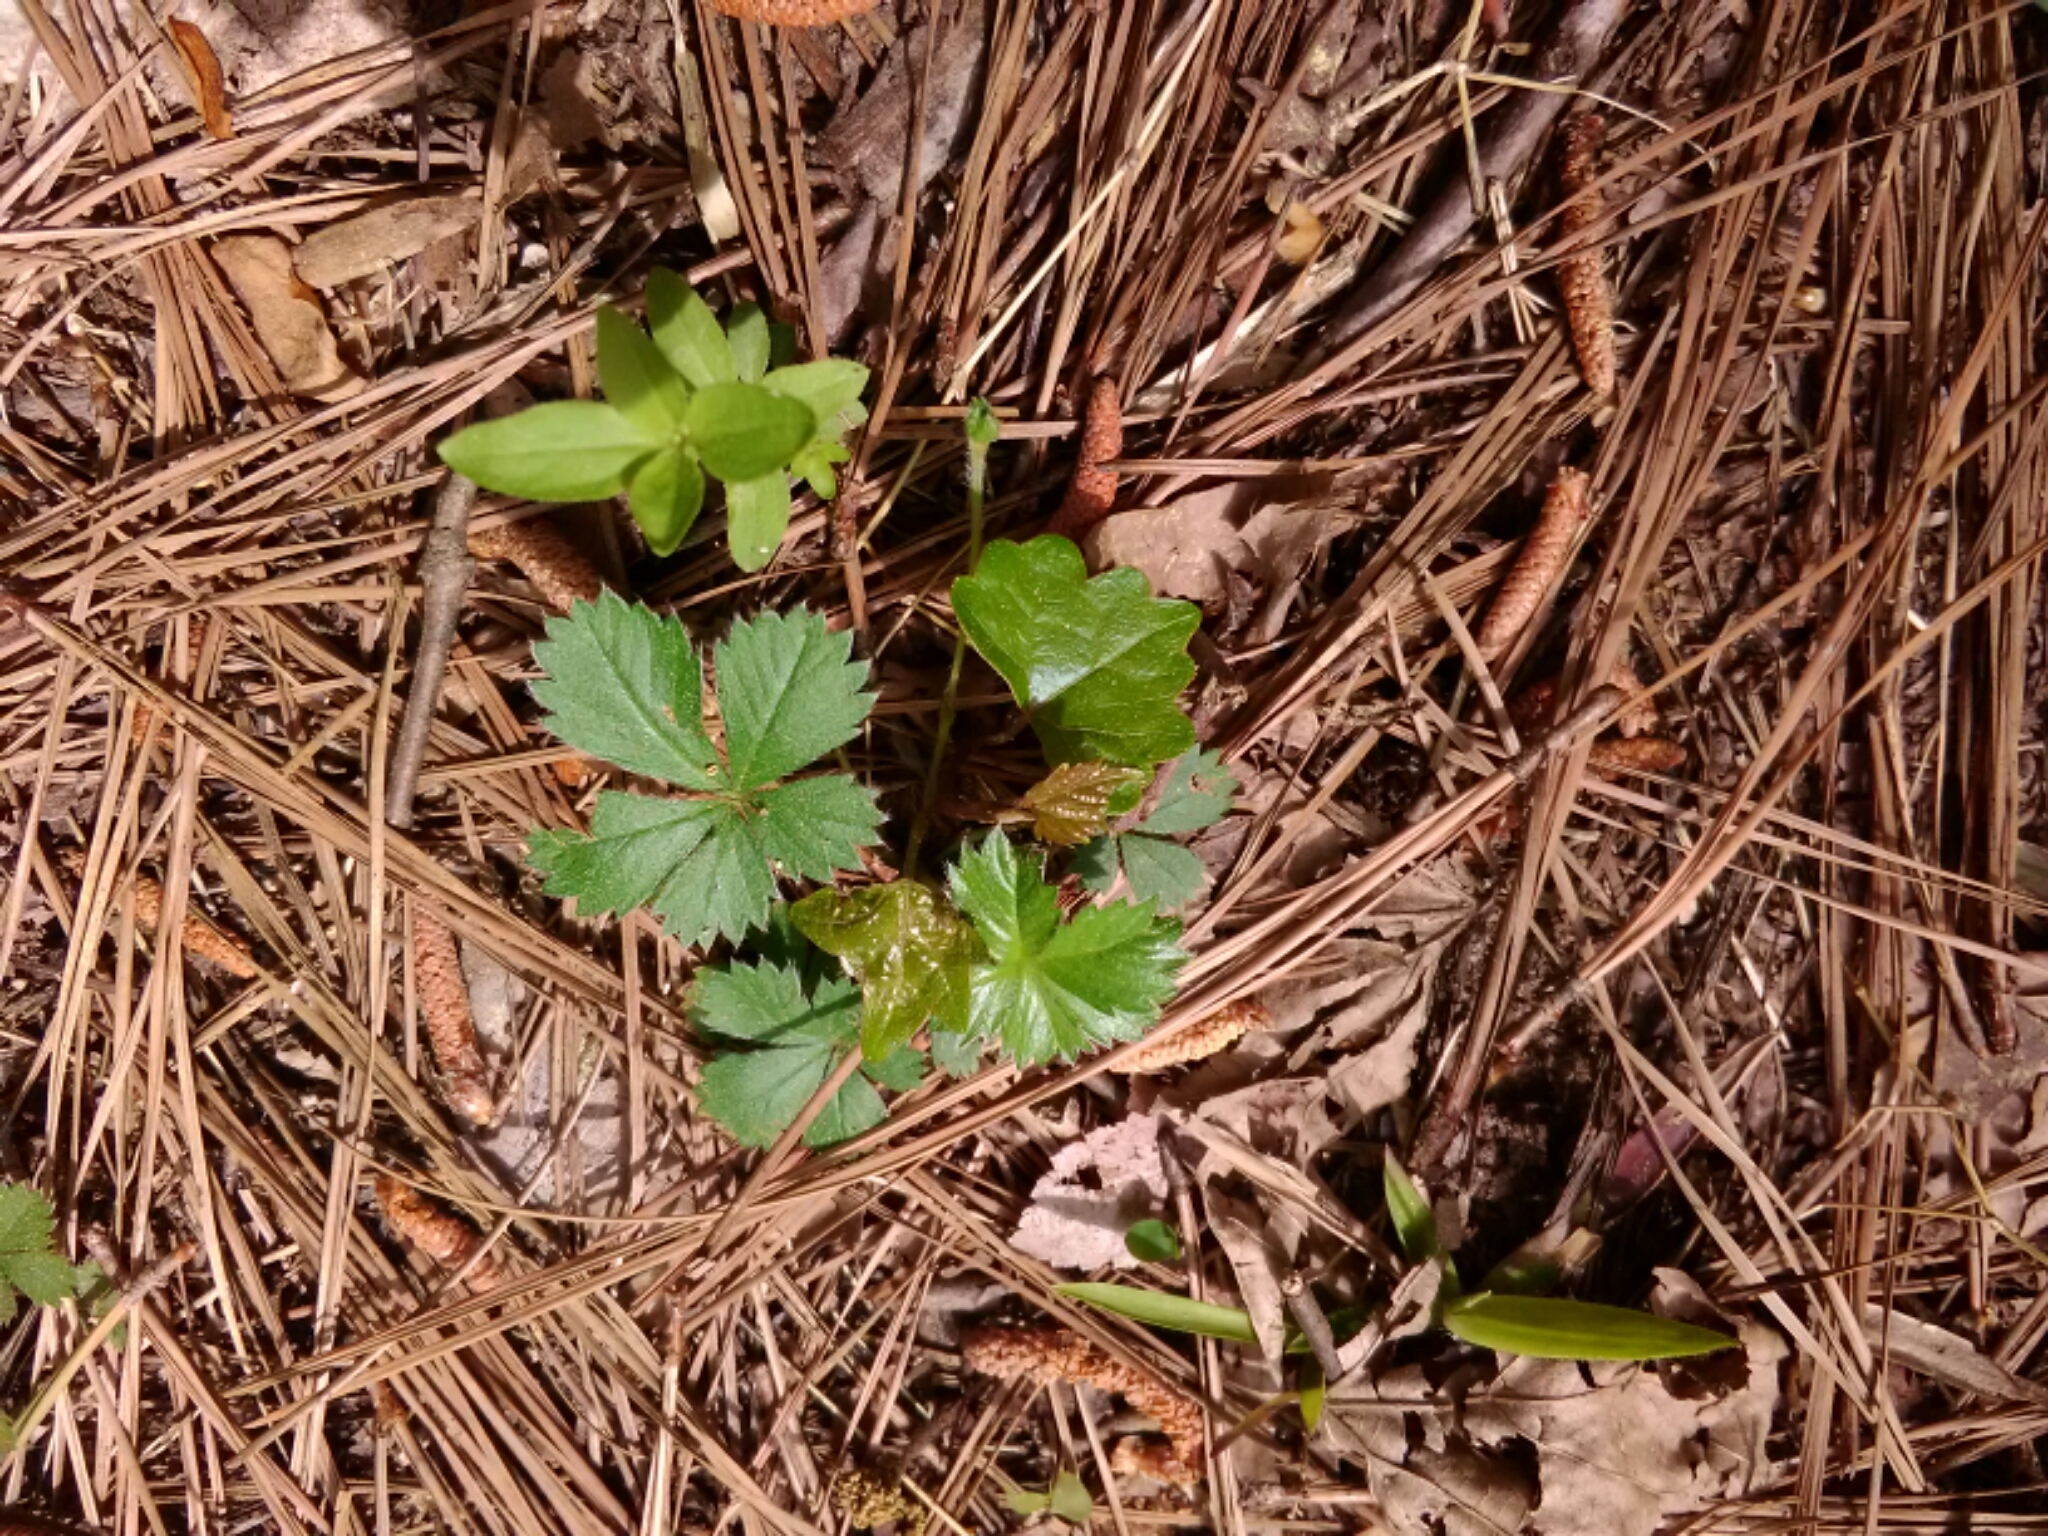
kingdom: Plantae
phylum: Tracheophyta
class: Magnoliopsida
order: Rosales
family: Rosaceae
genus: Potentilla
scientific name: Potentilla canadensis
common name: Canada cinquefoil
